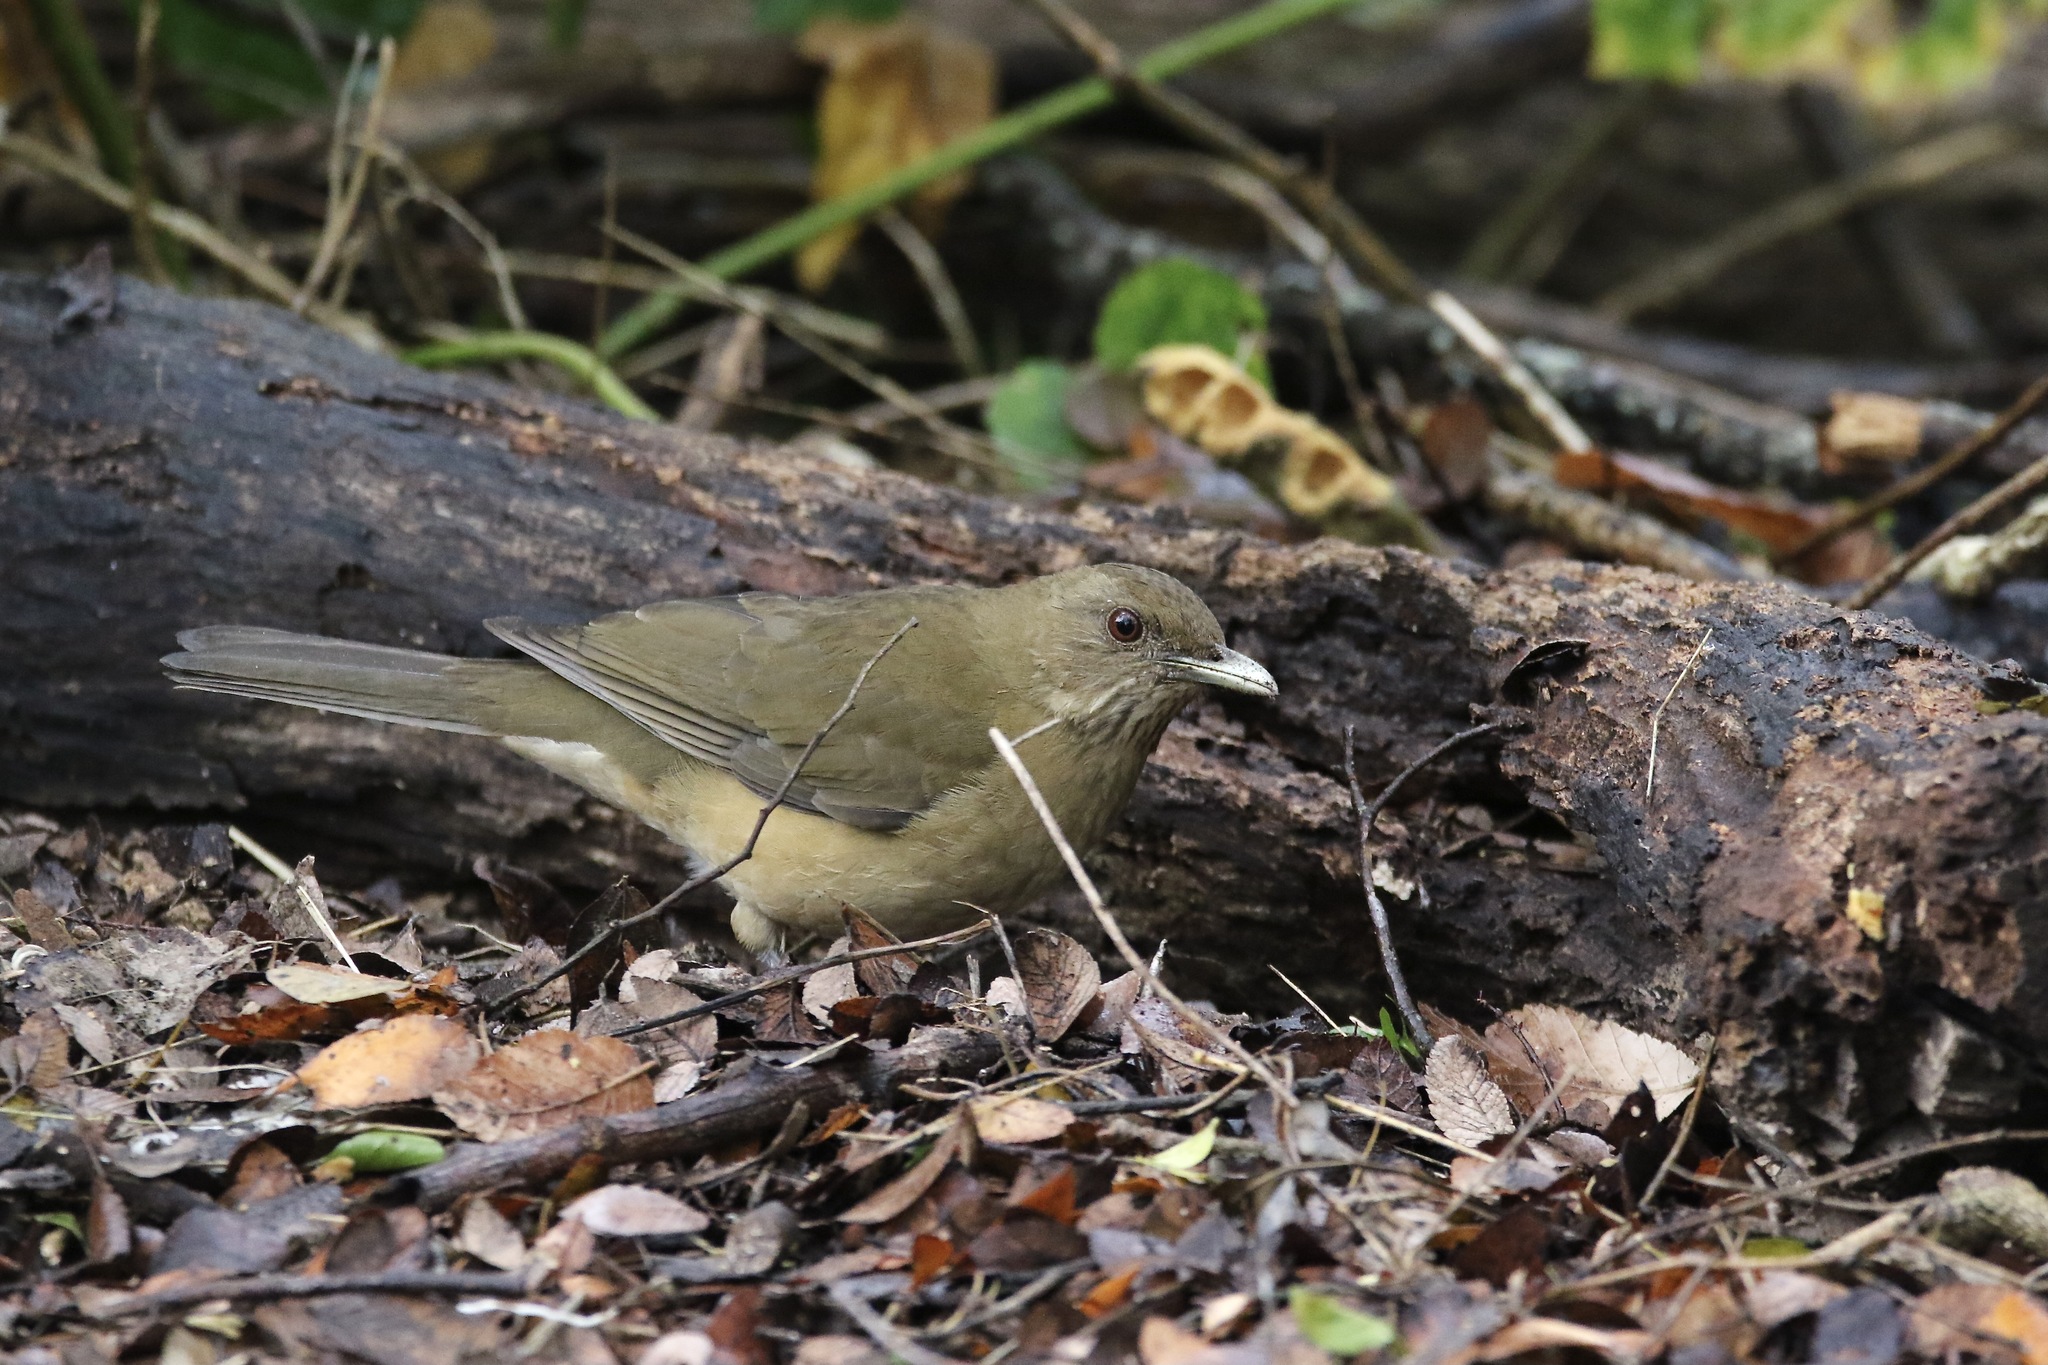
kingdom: Animalia
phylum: Chordata
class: Aves
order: Passeriformes
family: Turdidae
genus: Turdus
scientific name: Turdus grayi
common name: Clay-colored thrush
